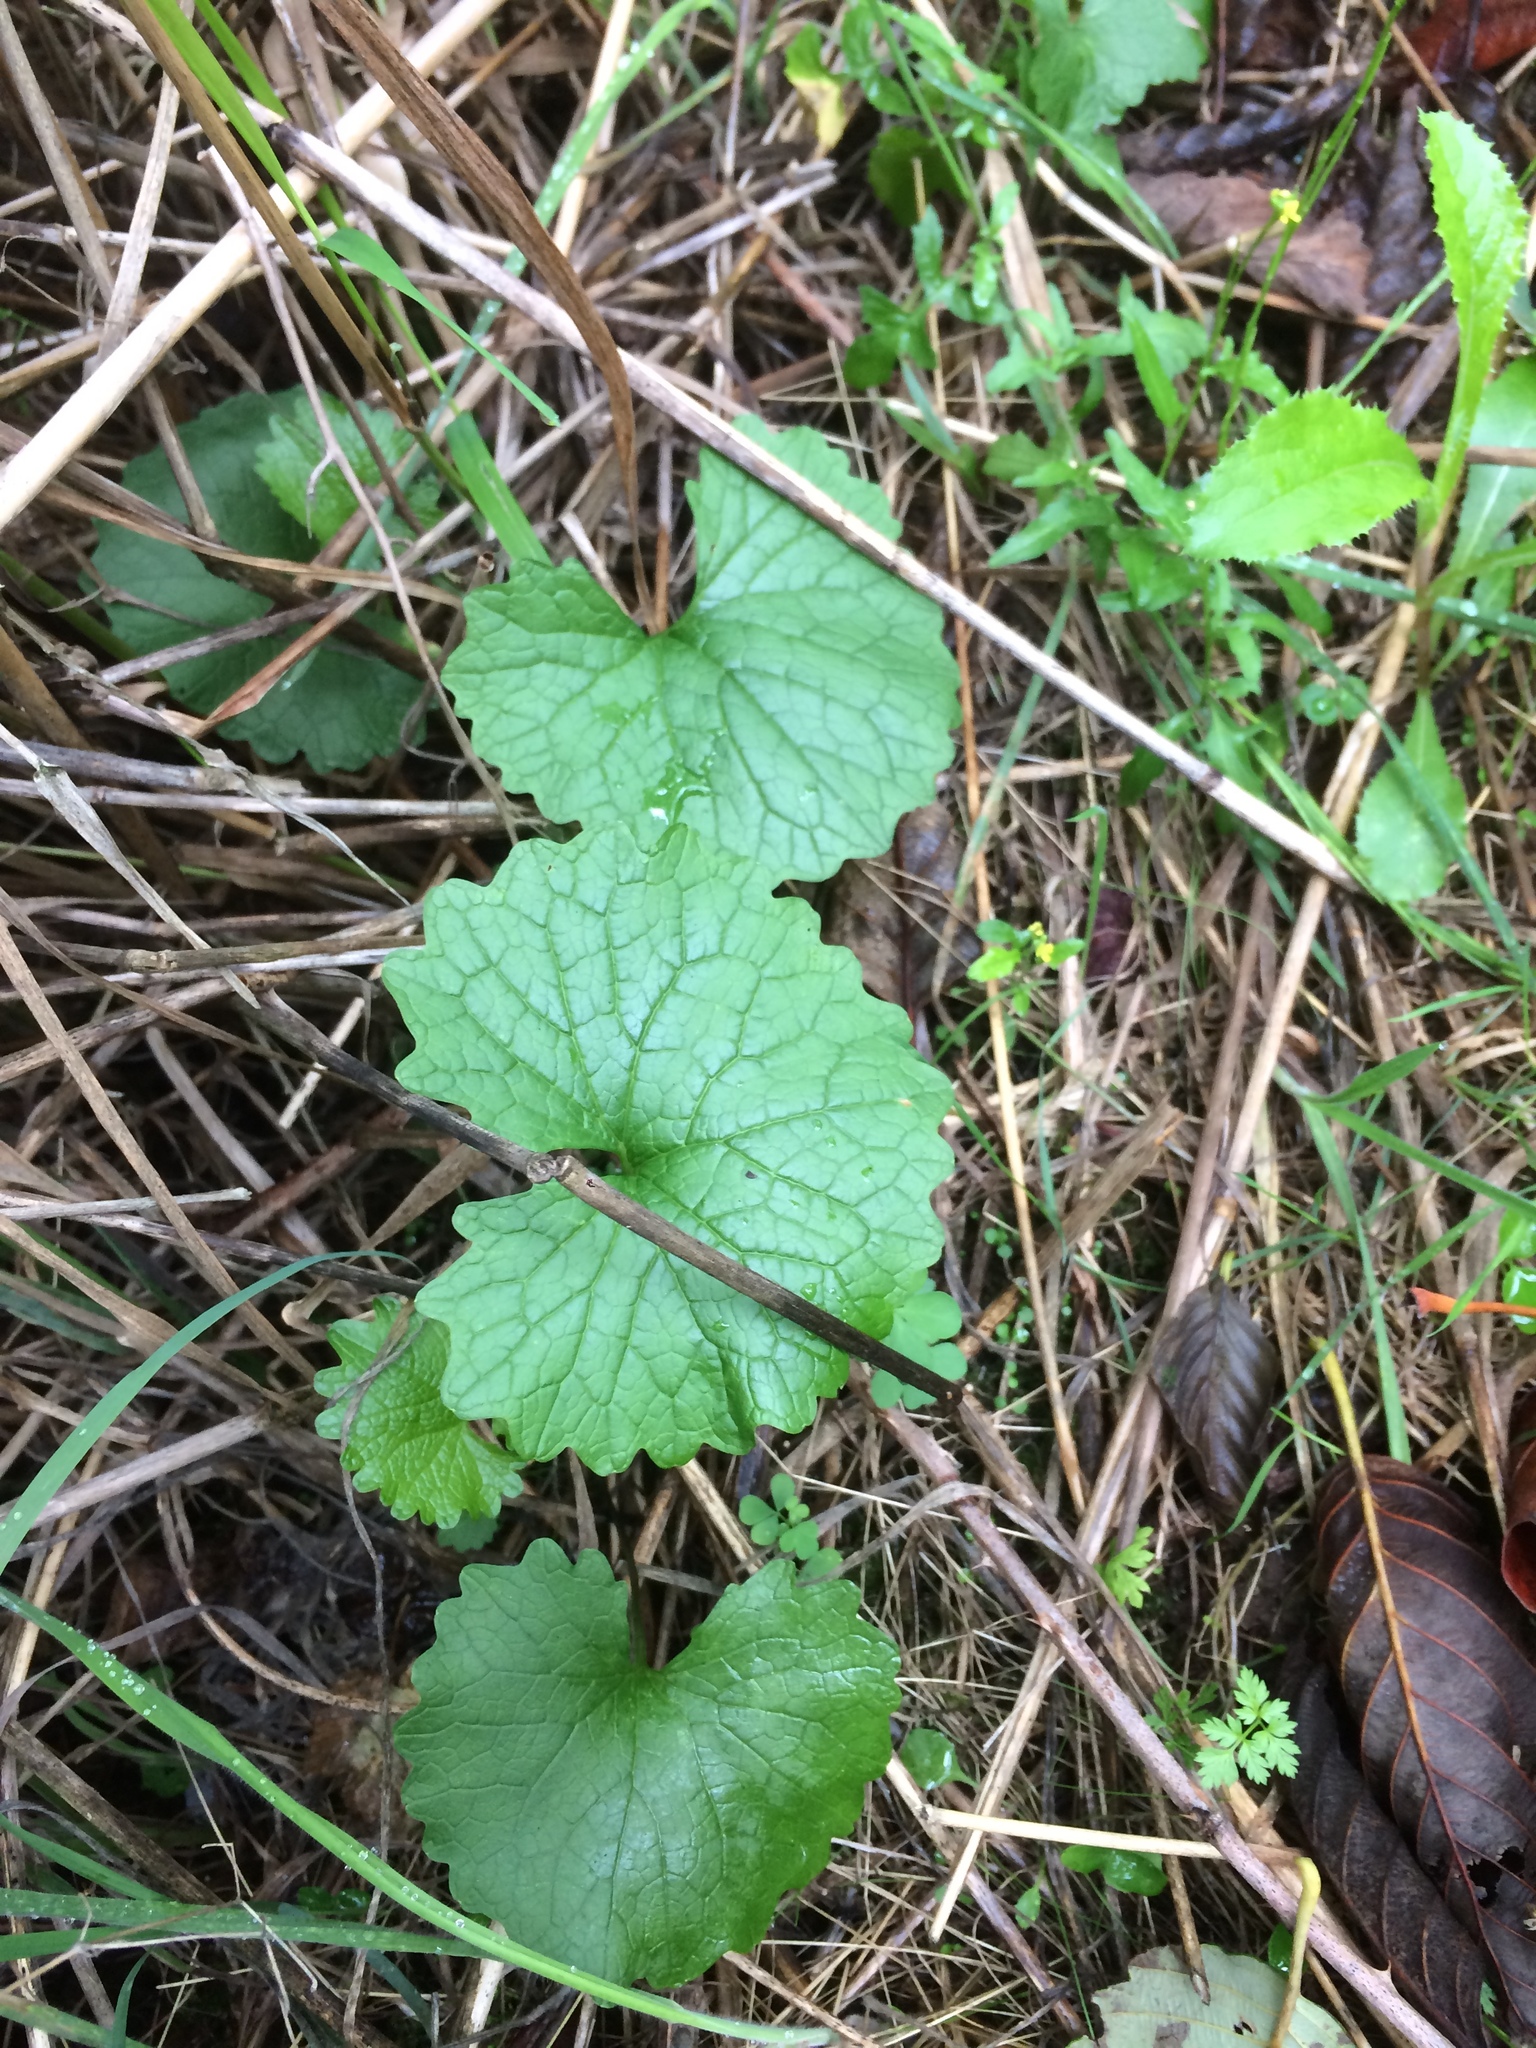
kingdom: Plantae
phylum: Tracheophyta
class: Magnoliopsida
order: Brassicales
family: Brassicaceae
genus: Alliaria
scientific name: Alliaria petiolata
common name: Garlic mustard
